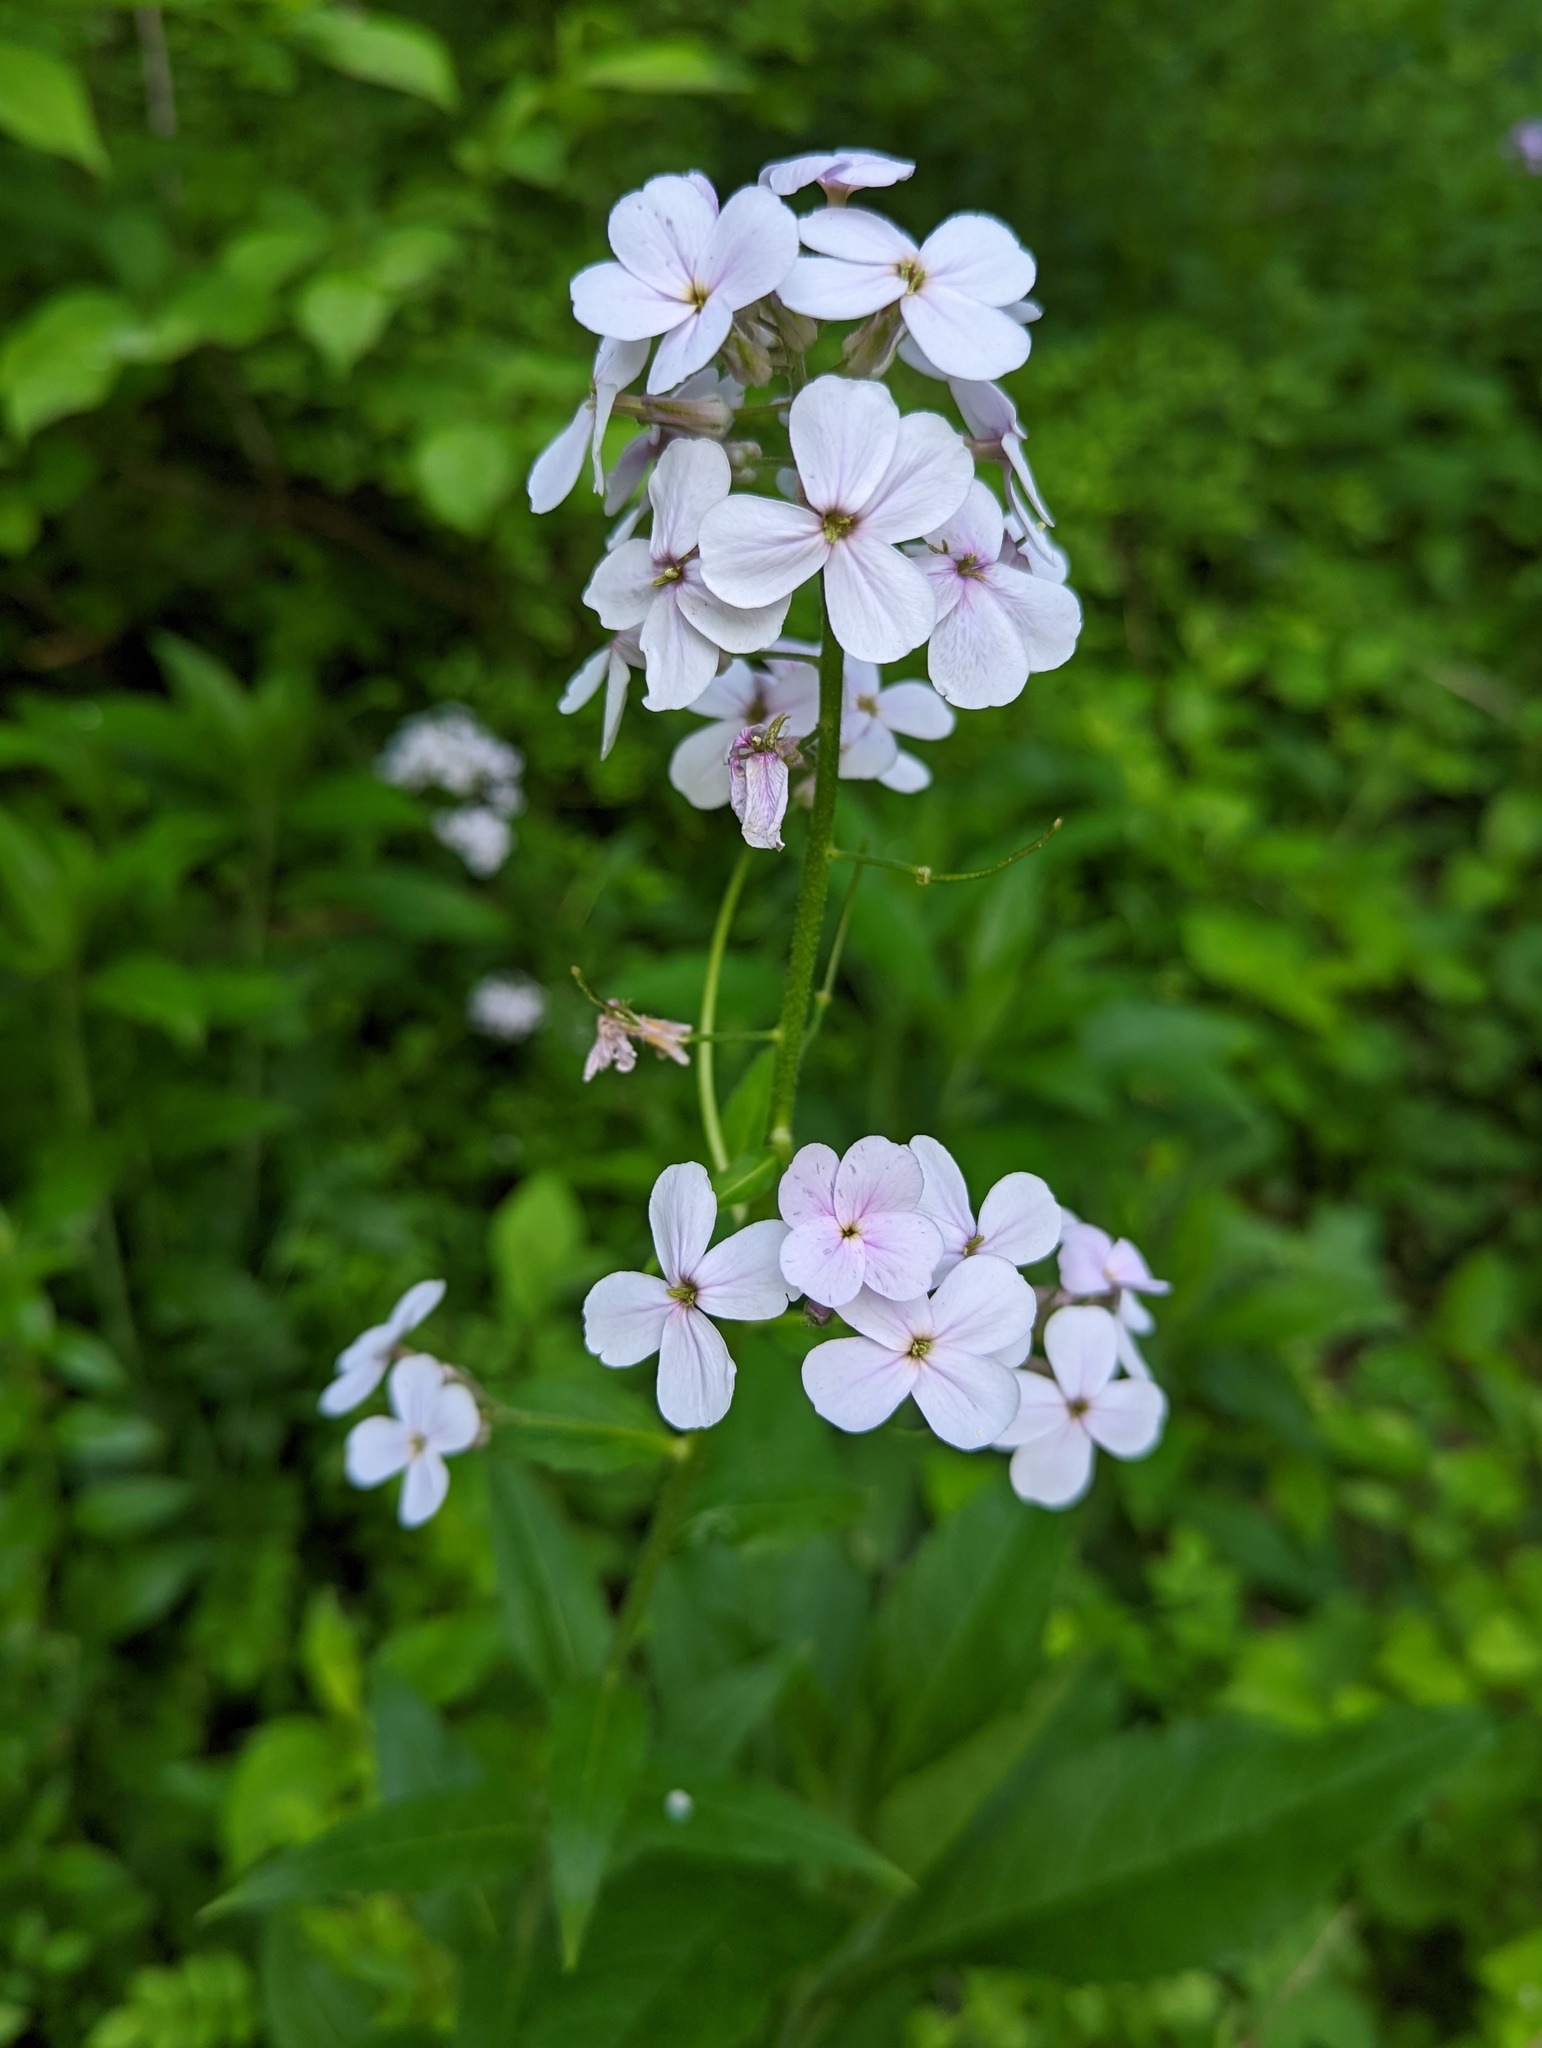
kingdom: Plantae
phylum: Tracheophyta
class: Magnoliopsida
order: Brassicales
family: Brassicaceae
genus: Hesperis
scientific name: Hesperis matronalis
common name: Dame's-violet
